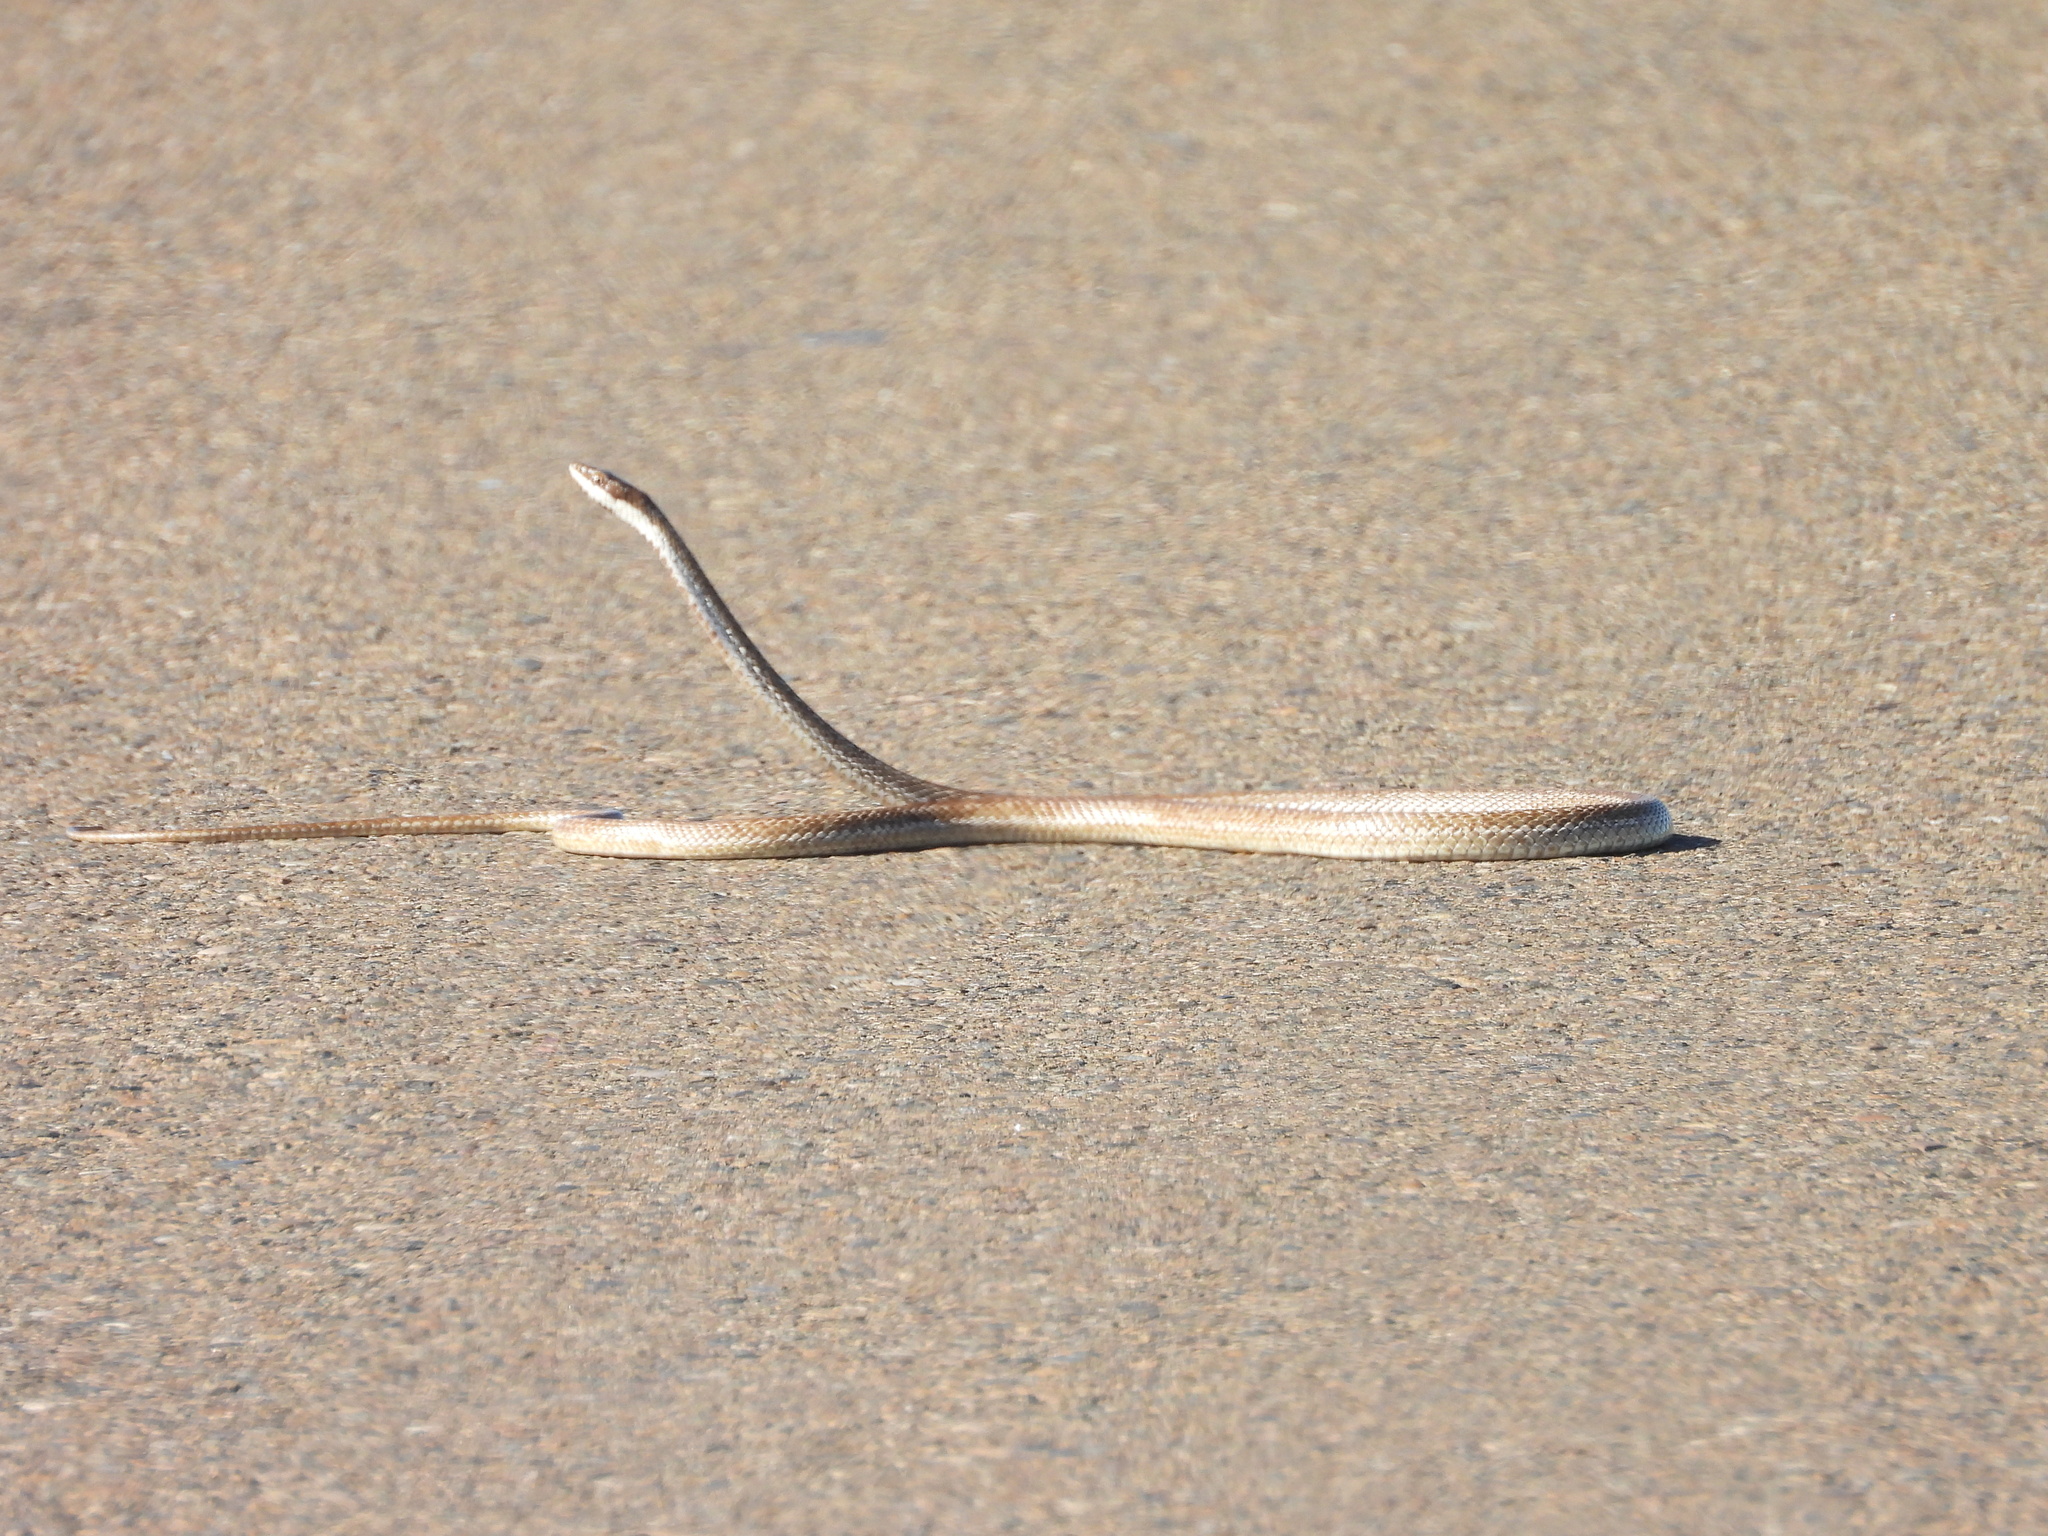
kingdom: Animalia
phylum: Chordata
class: Squamata
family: Colubridae
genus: Philodryas
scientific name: Philodryas trilineata
